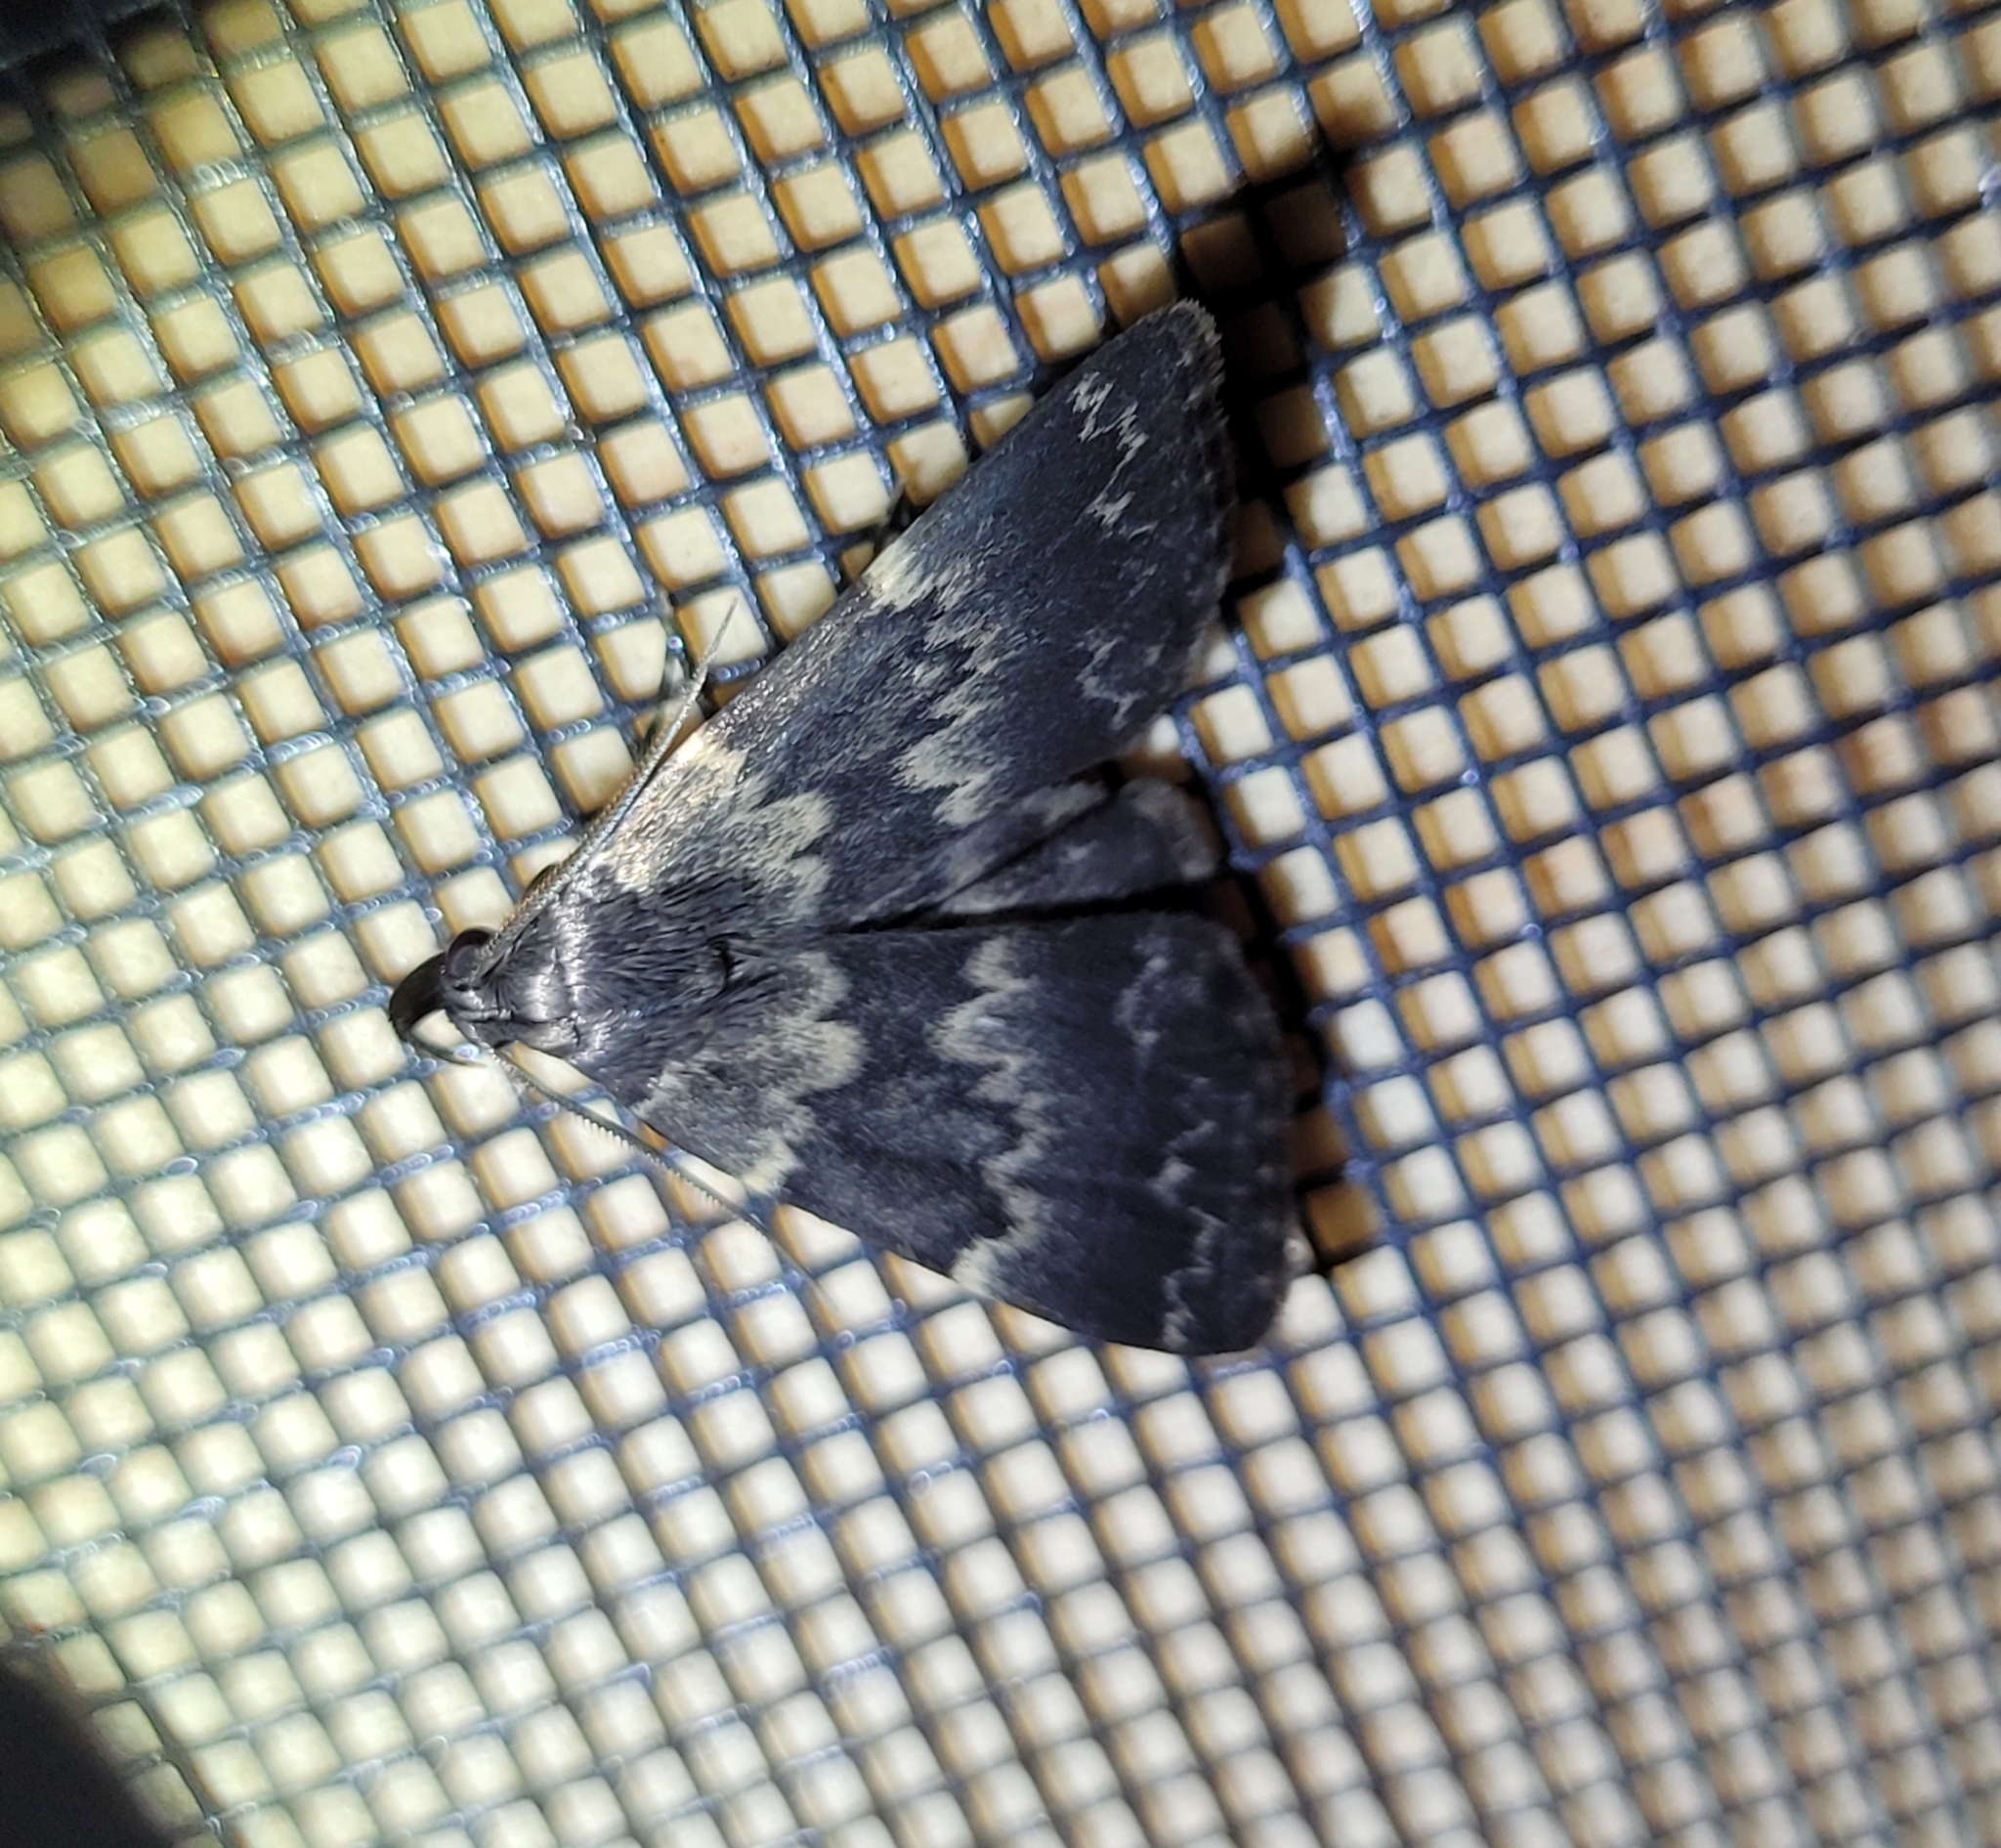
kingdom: Animalia
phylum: Arthropoda
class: Insecta
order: Lepidoptera
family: Erebidae
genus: Idia
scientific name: Idia lubricalis
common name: Twin-striped tabby
